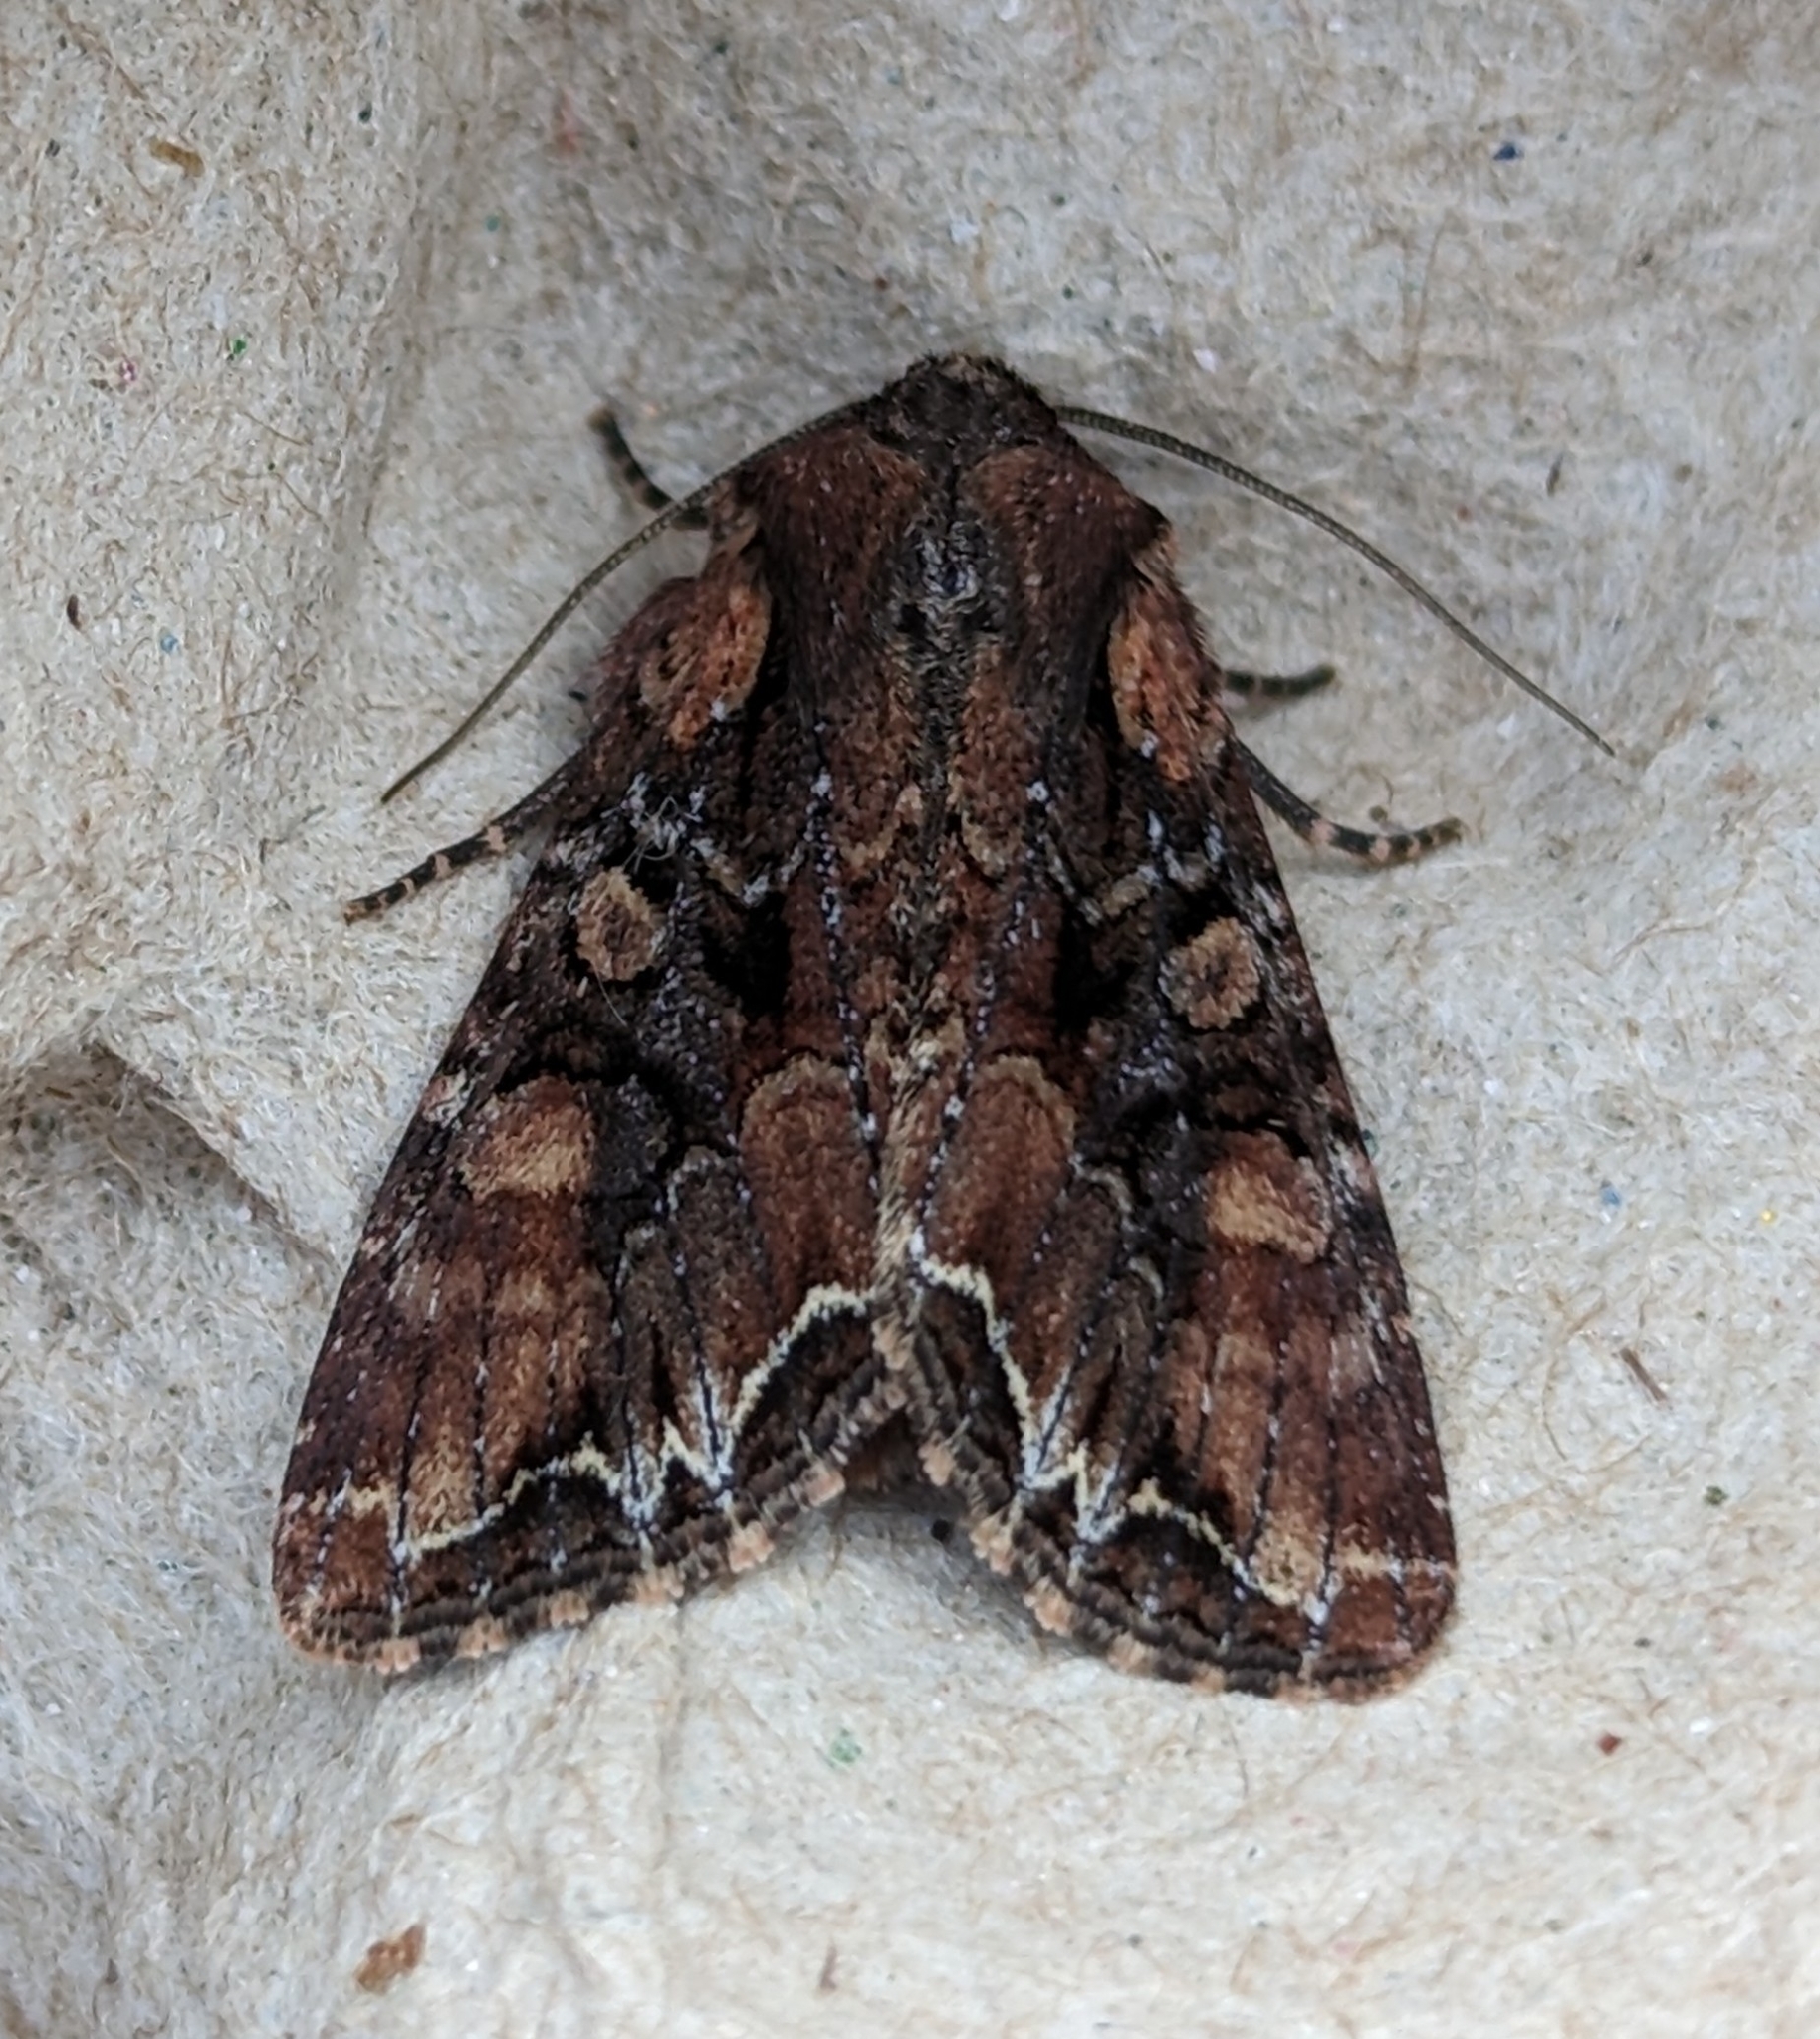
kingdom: Animalia
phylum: Arthropoda
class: Insecta
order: Lepidoptera
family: Noctuidae
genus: Lacanobia
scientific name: Lacanobia nevadae
